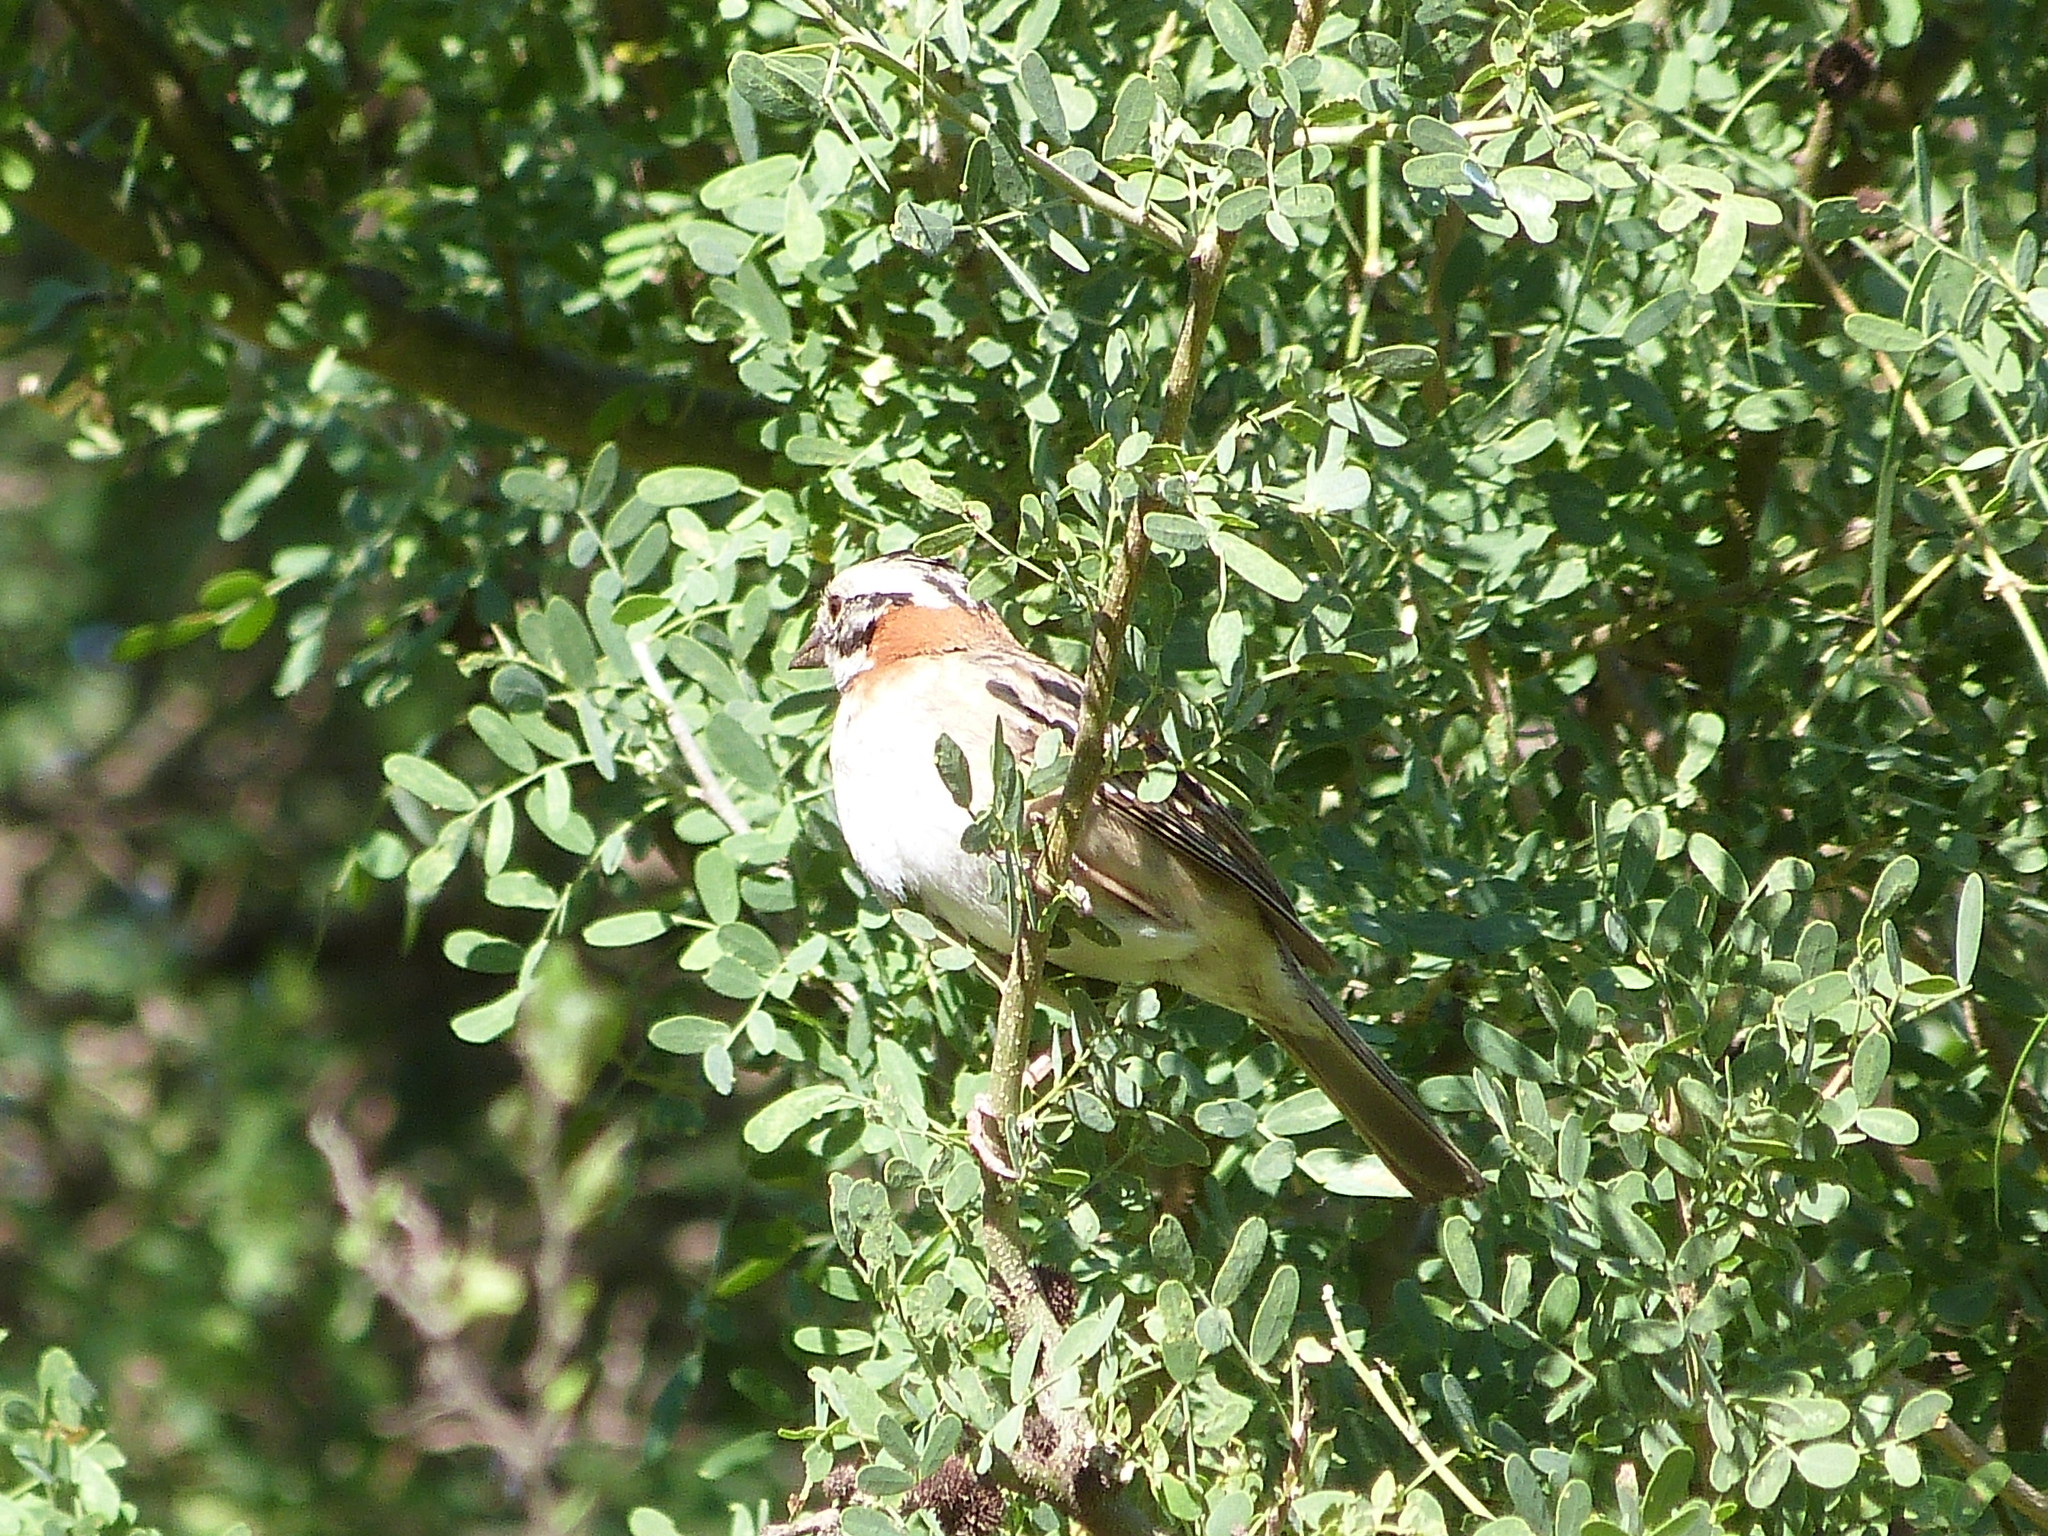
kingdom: Animalia
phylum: Chordata
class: Aves
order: Passeriformes
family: Passerellidae
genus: Zonotrichia
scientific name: Zonotrichia capensis
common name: Rufous-collared sparrow
